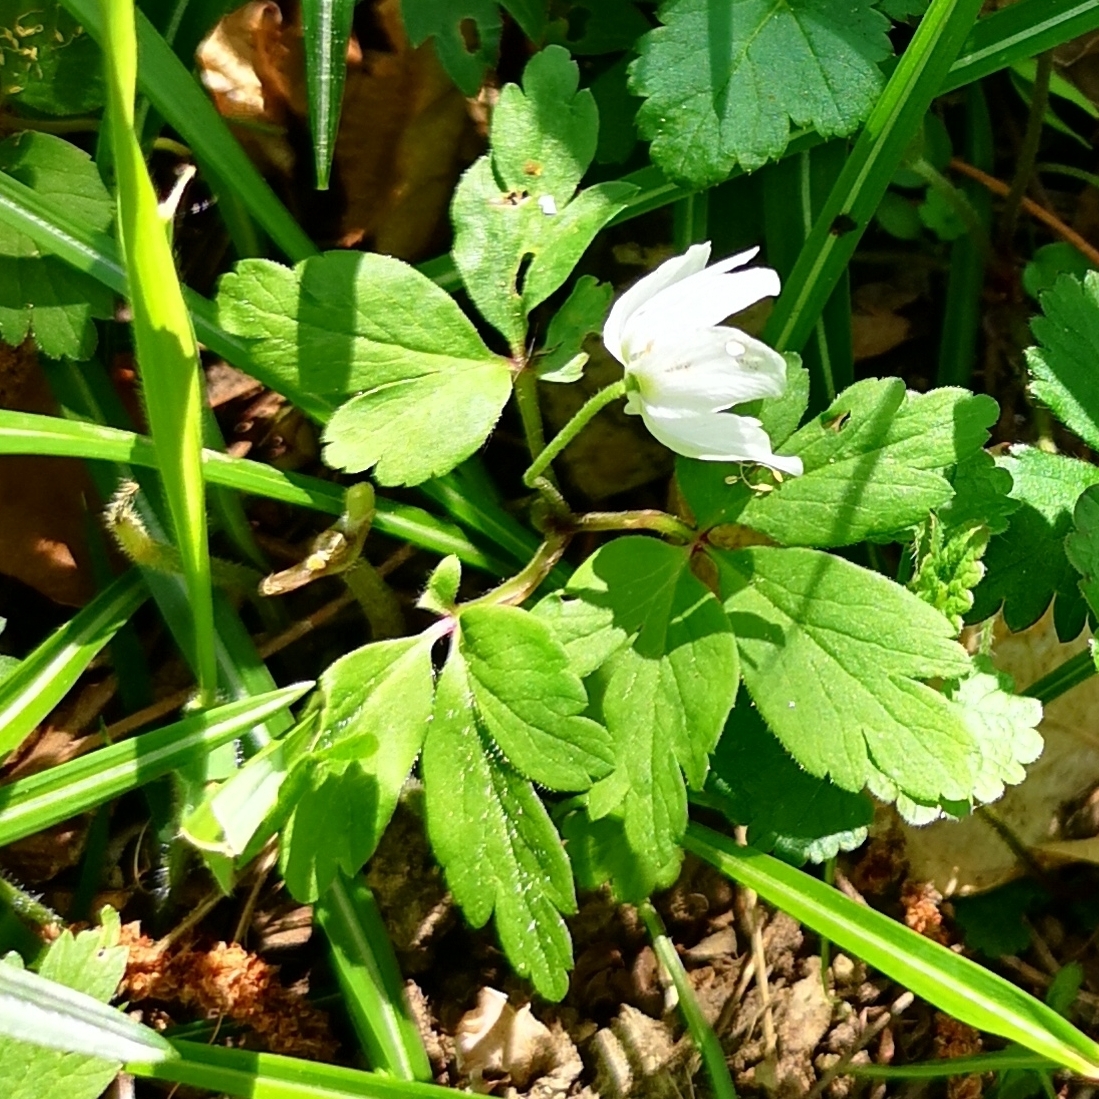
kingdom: Plantae
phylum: Tracheophyta
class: Magnoliopsida
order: Ranunculales
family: Ranunculaceae
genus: Anemone
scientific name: Anemone nemorosa
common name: Wood anemone
